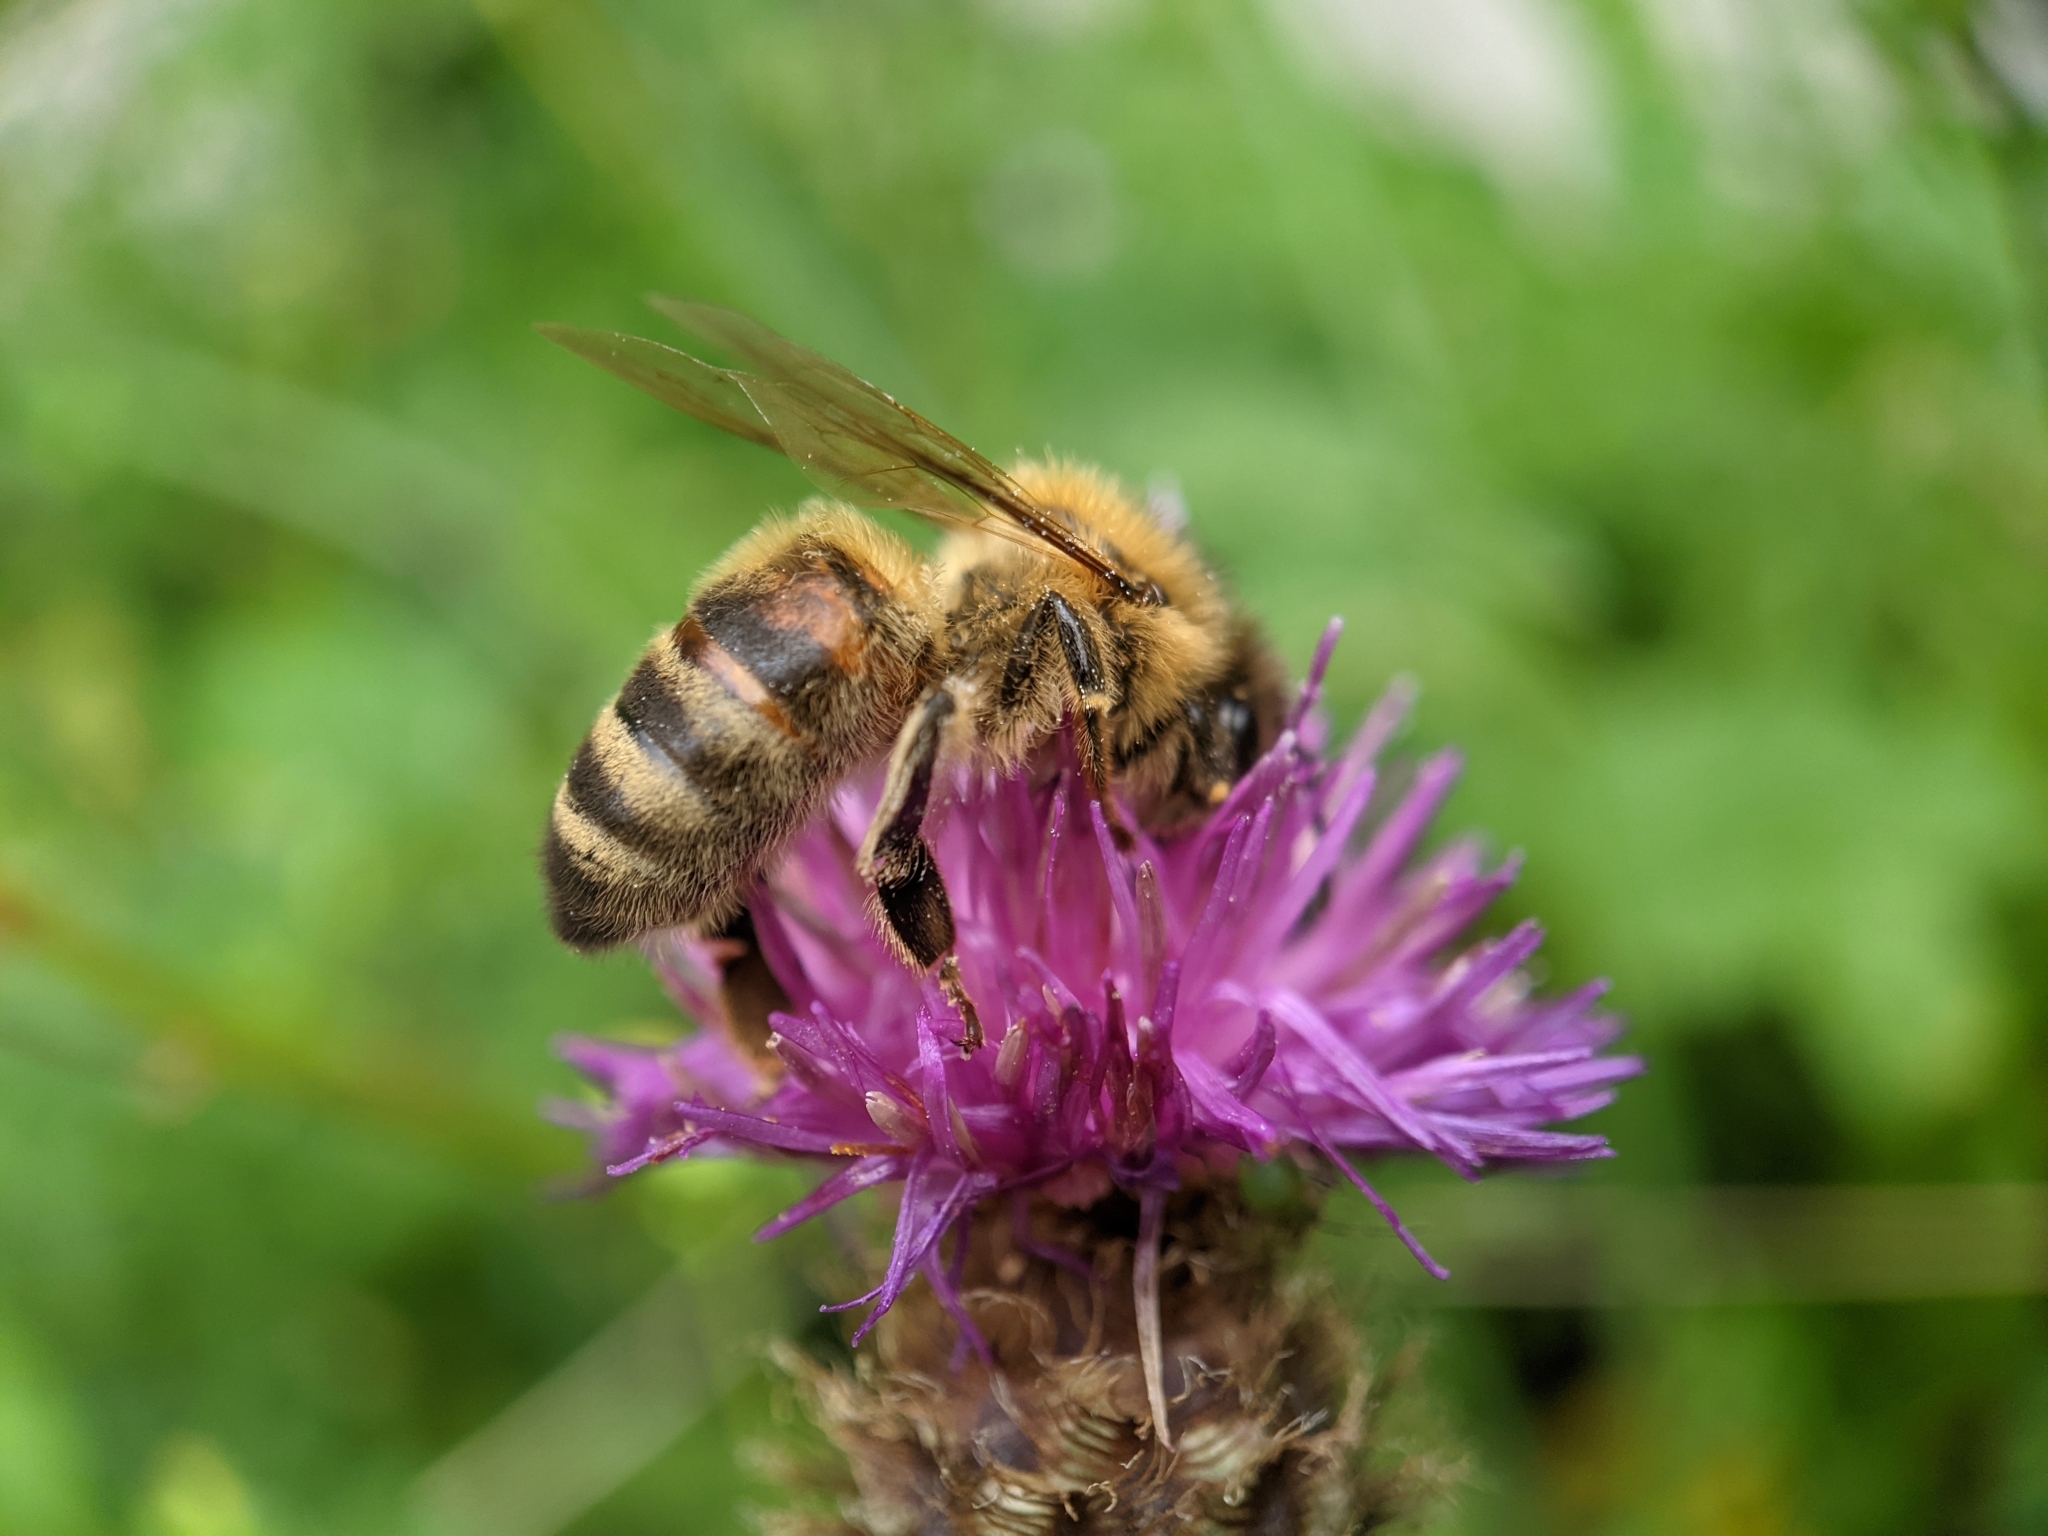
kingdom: Animalia
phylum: Arthropoda
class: Insecta
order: Hymenoptera
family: Apidae
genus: Apis
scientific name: Apis mellifera
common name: Honey bee
